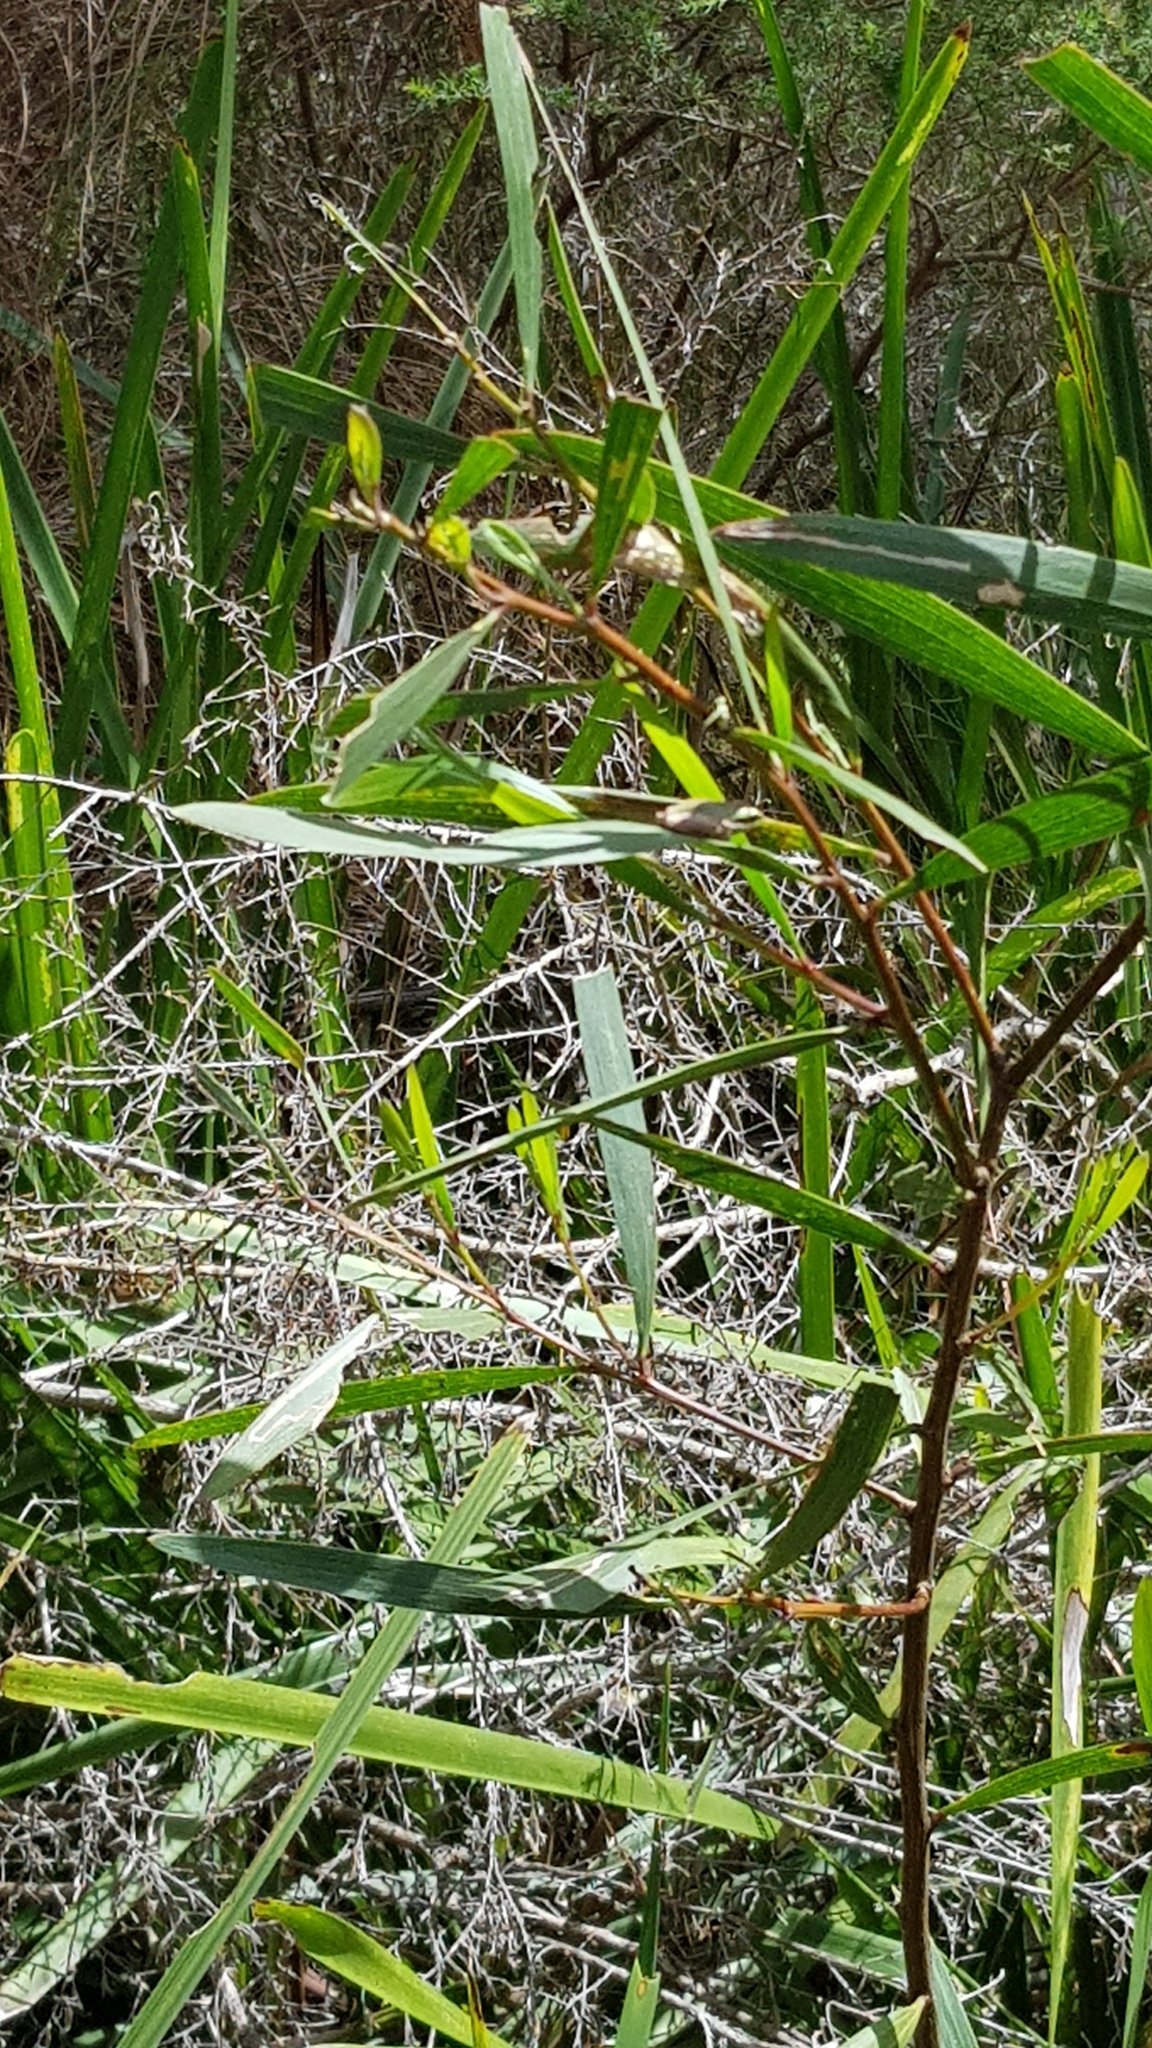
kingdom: Animalia
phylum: Chordata
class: Amphibia
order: Anura
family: Pelodryadidae
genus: Litoria
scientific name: Litoria fallax
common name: Eastern dwarf treefrog
